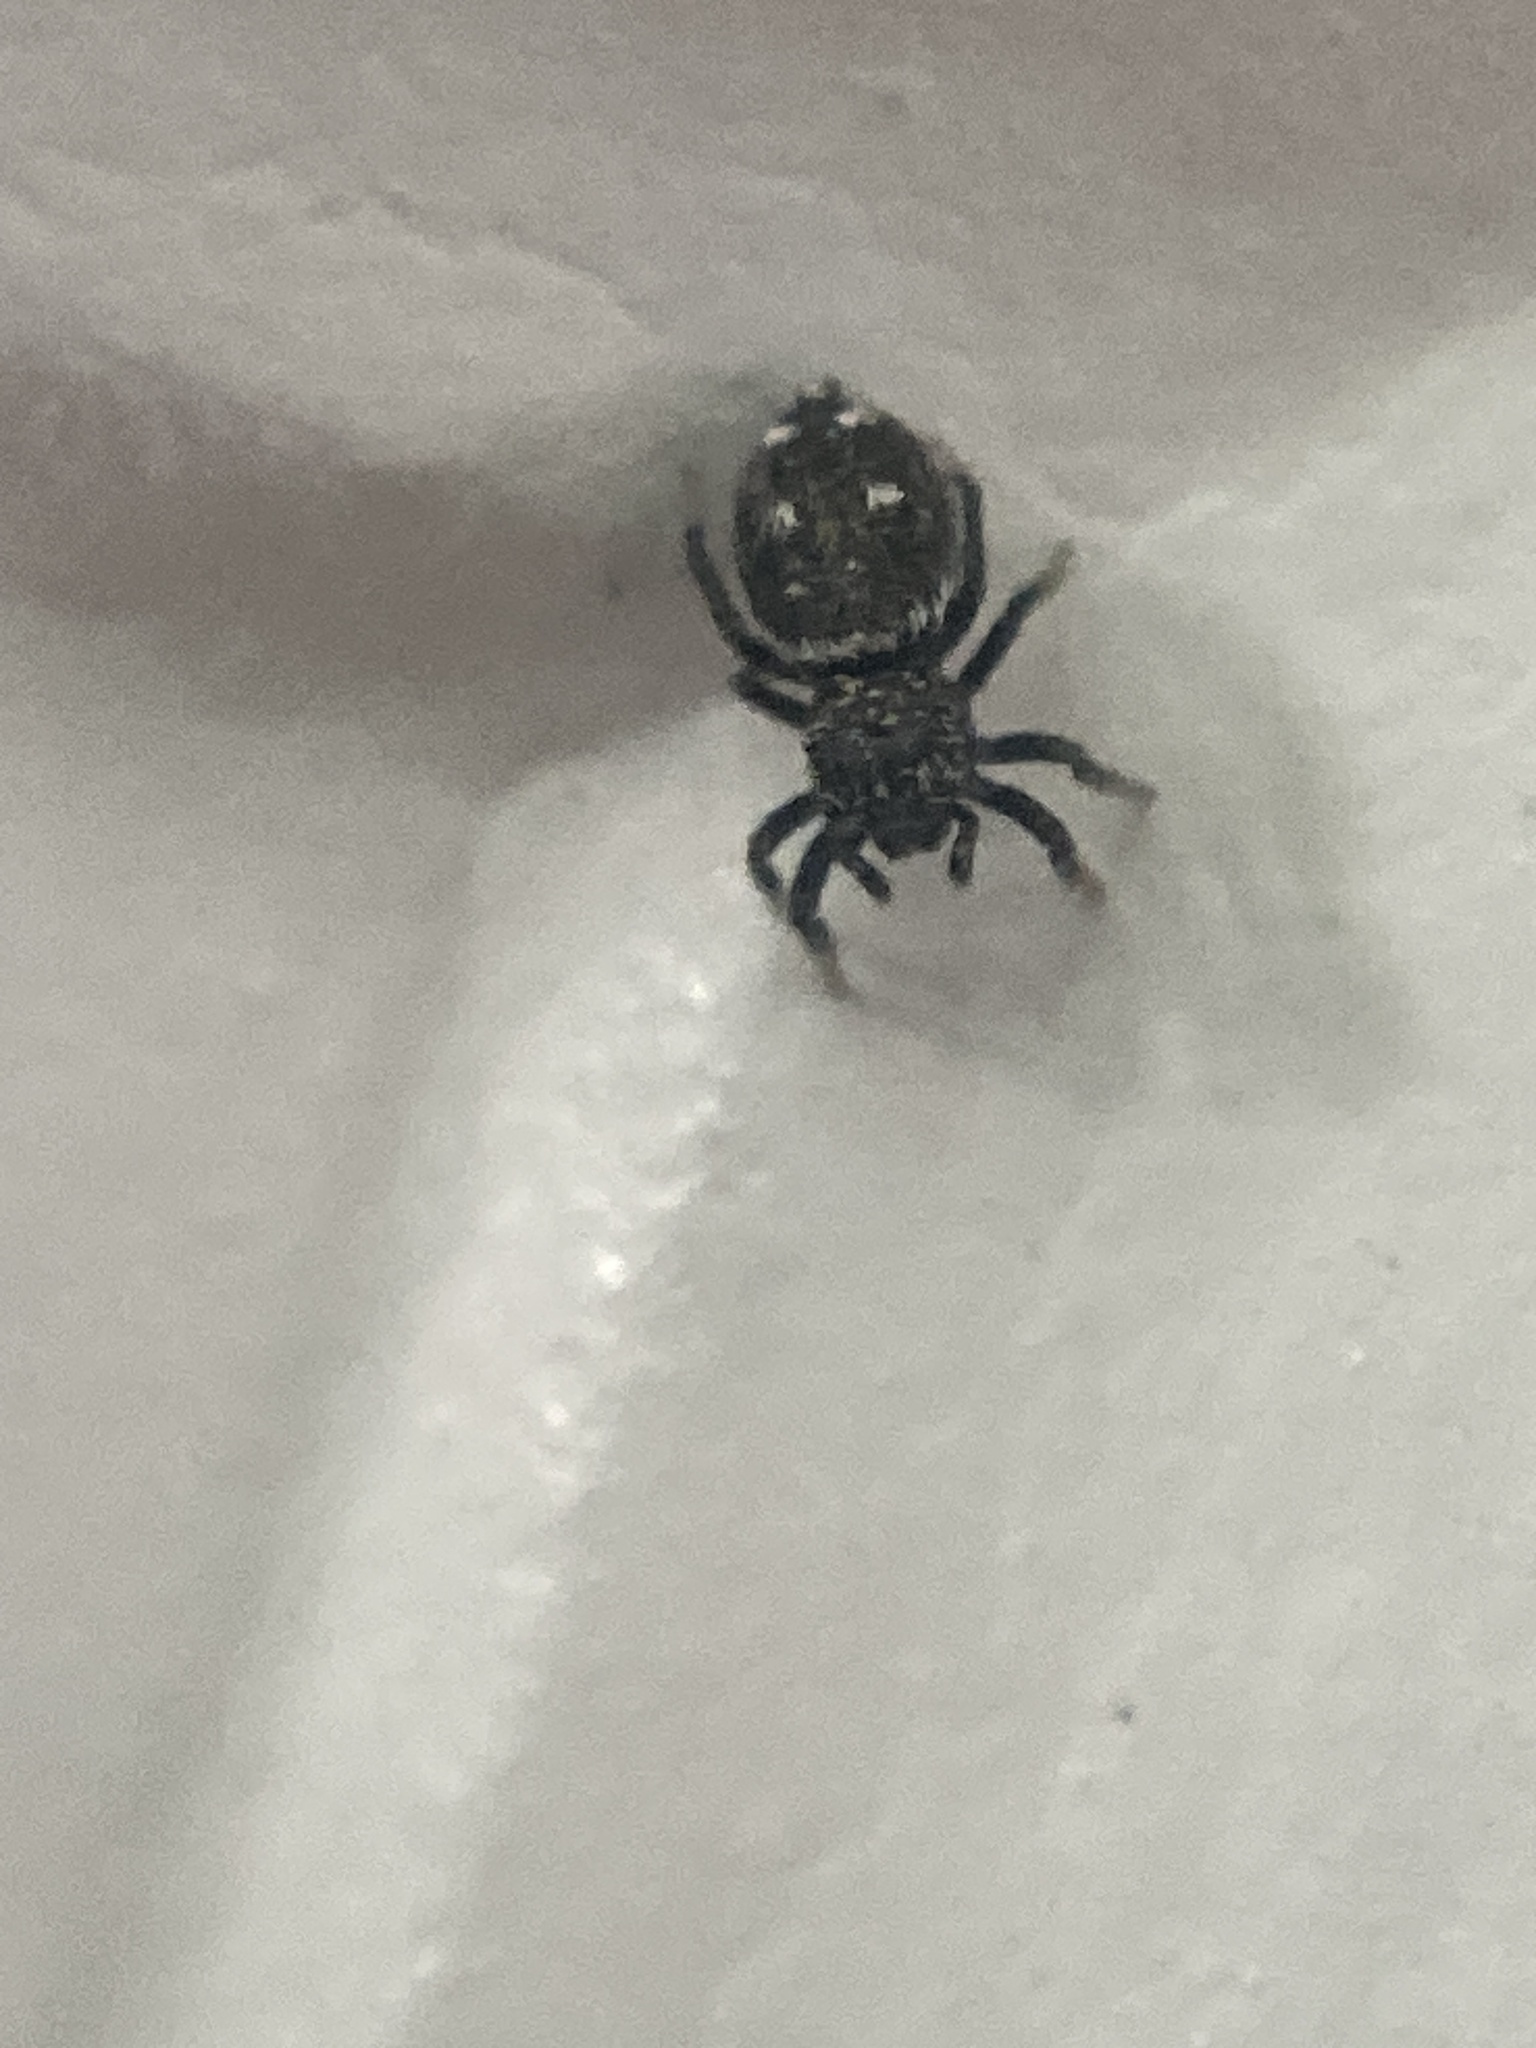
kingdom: Animalia
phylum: Arthropoda
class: Arachnida
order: Araneae
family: Salticidae
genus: Heliophanus
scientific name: Heliophanus kochii
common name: Sun jumping spider
